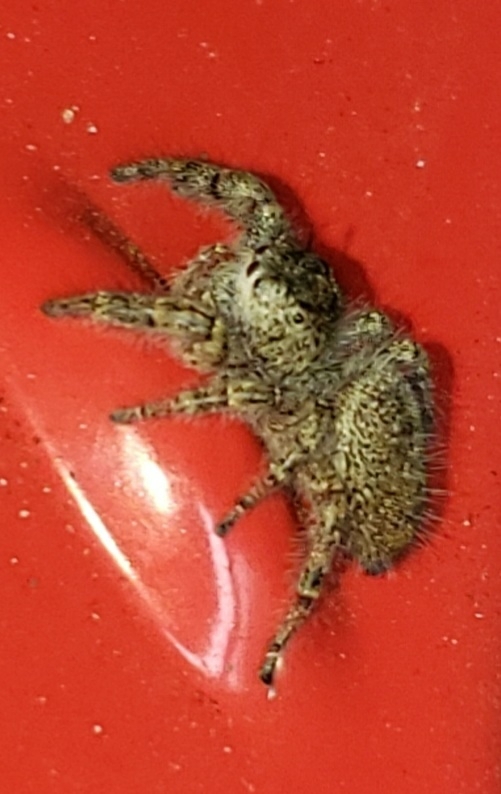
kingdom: Animalia
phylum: Arthropoda
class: Arachnida
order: Araneae
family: Salticidae
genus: Phidippus
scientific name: Phidippus princeps
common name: Grayish jumping spider
